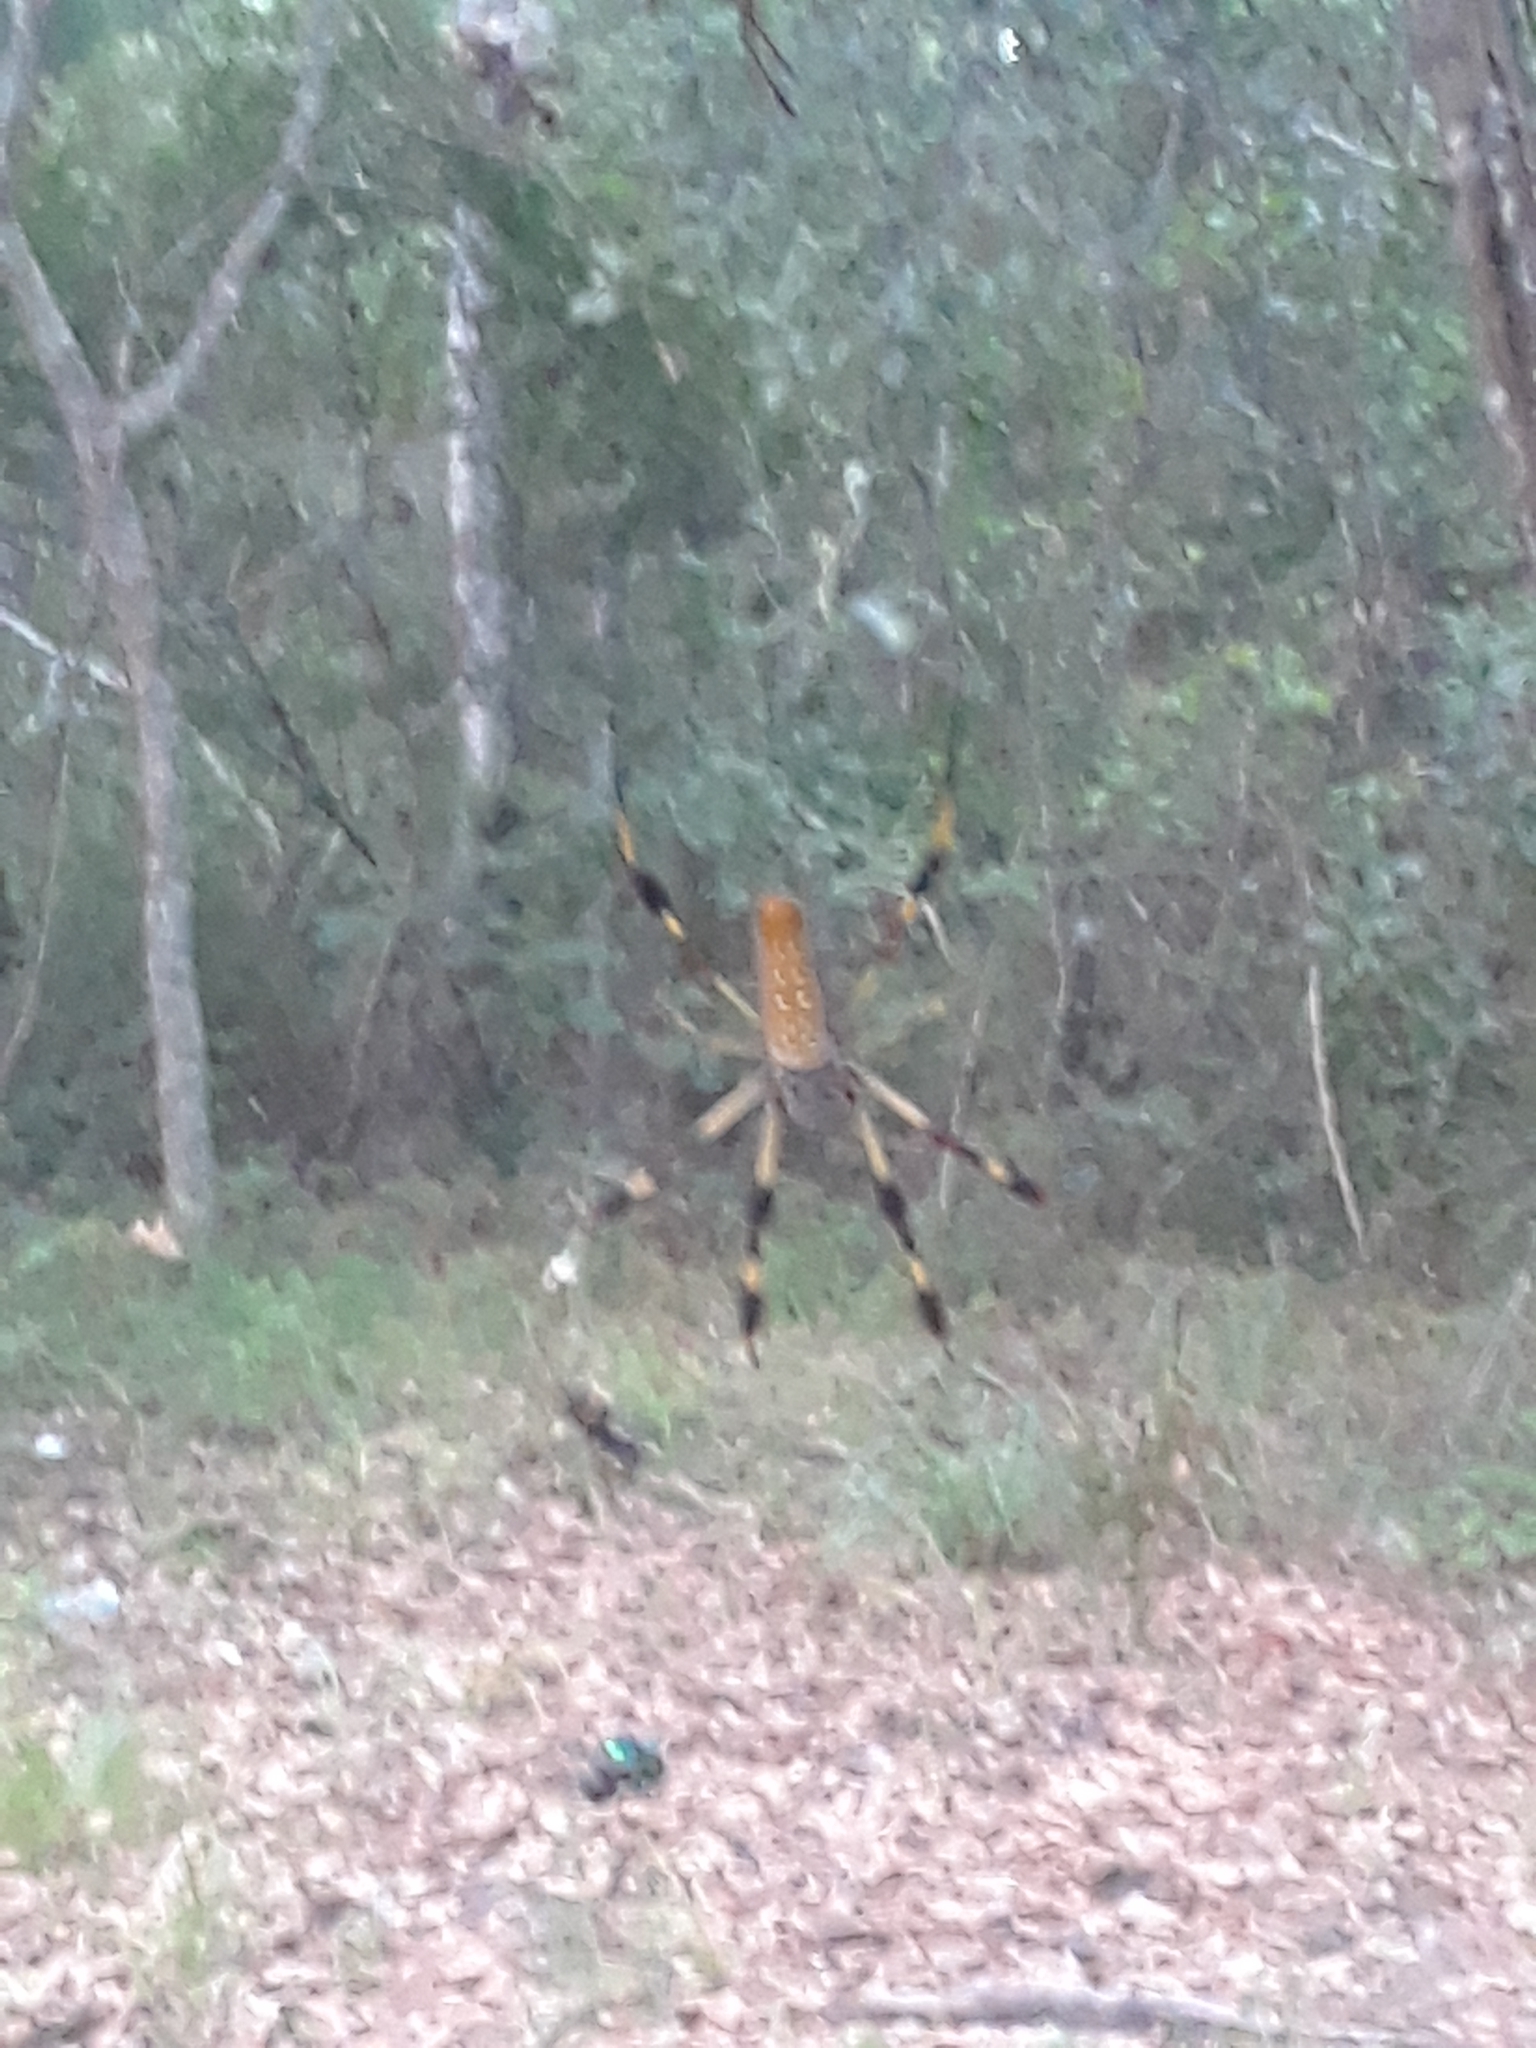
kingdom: Animalia
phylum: Arthropoda
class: Arachnida
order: Araneae
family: Araneidae
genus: Trichonephila
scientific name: Trichonephila clavipes
